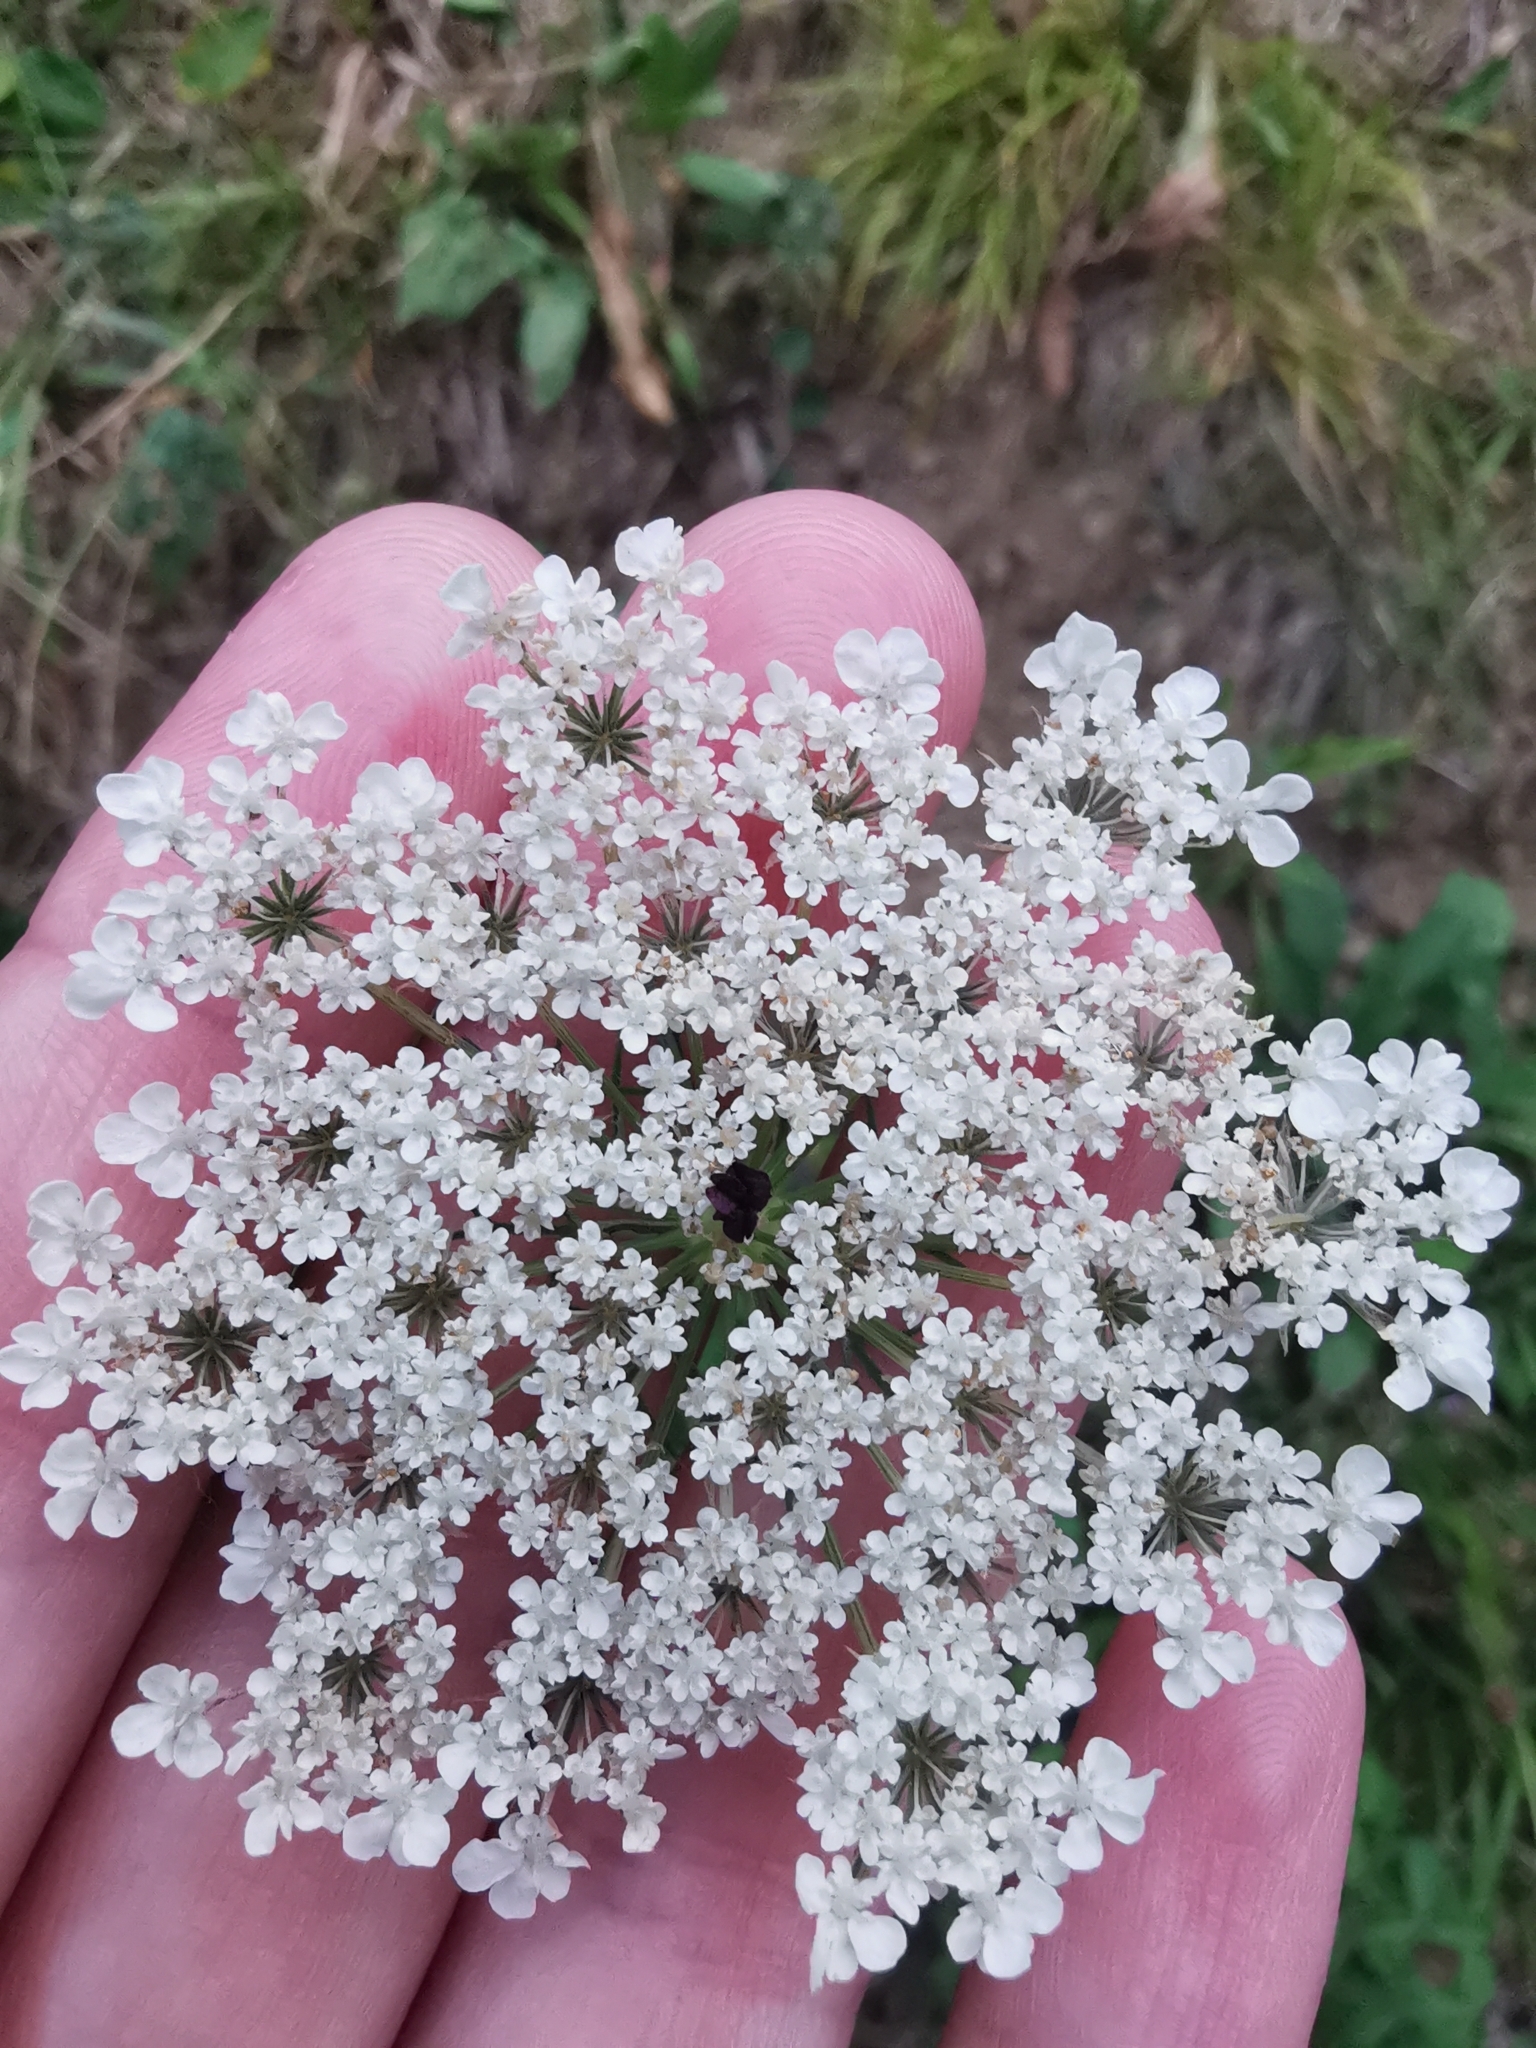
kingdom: Plantae
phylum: Tracheophyta
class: Magnoliopsida
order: Apiales
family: Apiaceae
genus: Daucus
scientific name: Daucus carota
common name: Wild carrot
